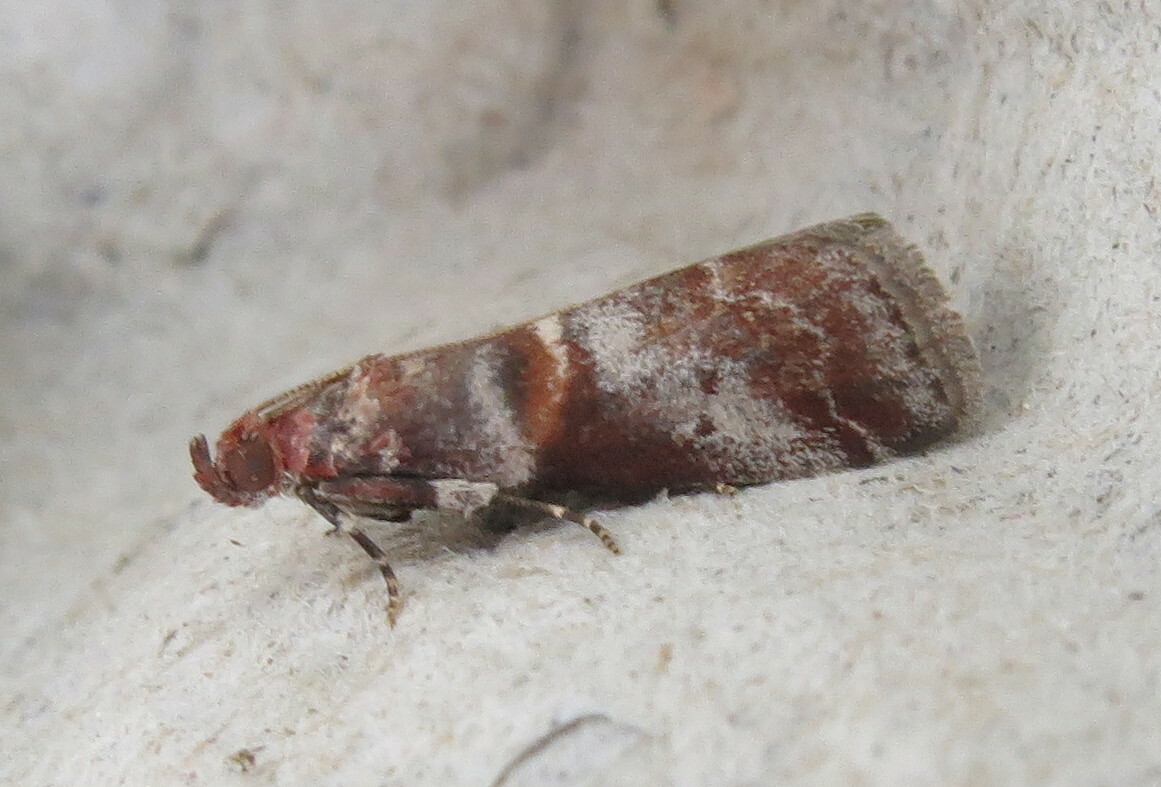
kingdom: Animalia
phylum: Arthropoda
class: Insecta
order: Lepidoptera
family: Pyralidae
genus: Acrobasis
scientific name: Acrobasis advenella
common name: Grey knot-horn
